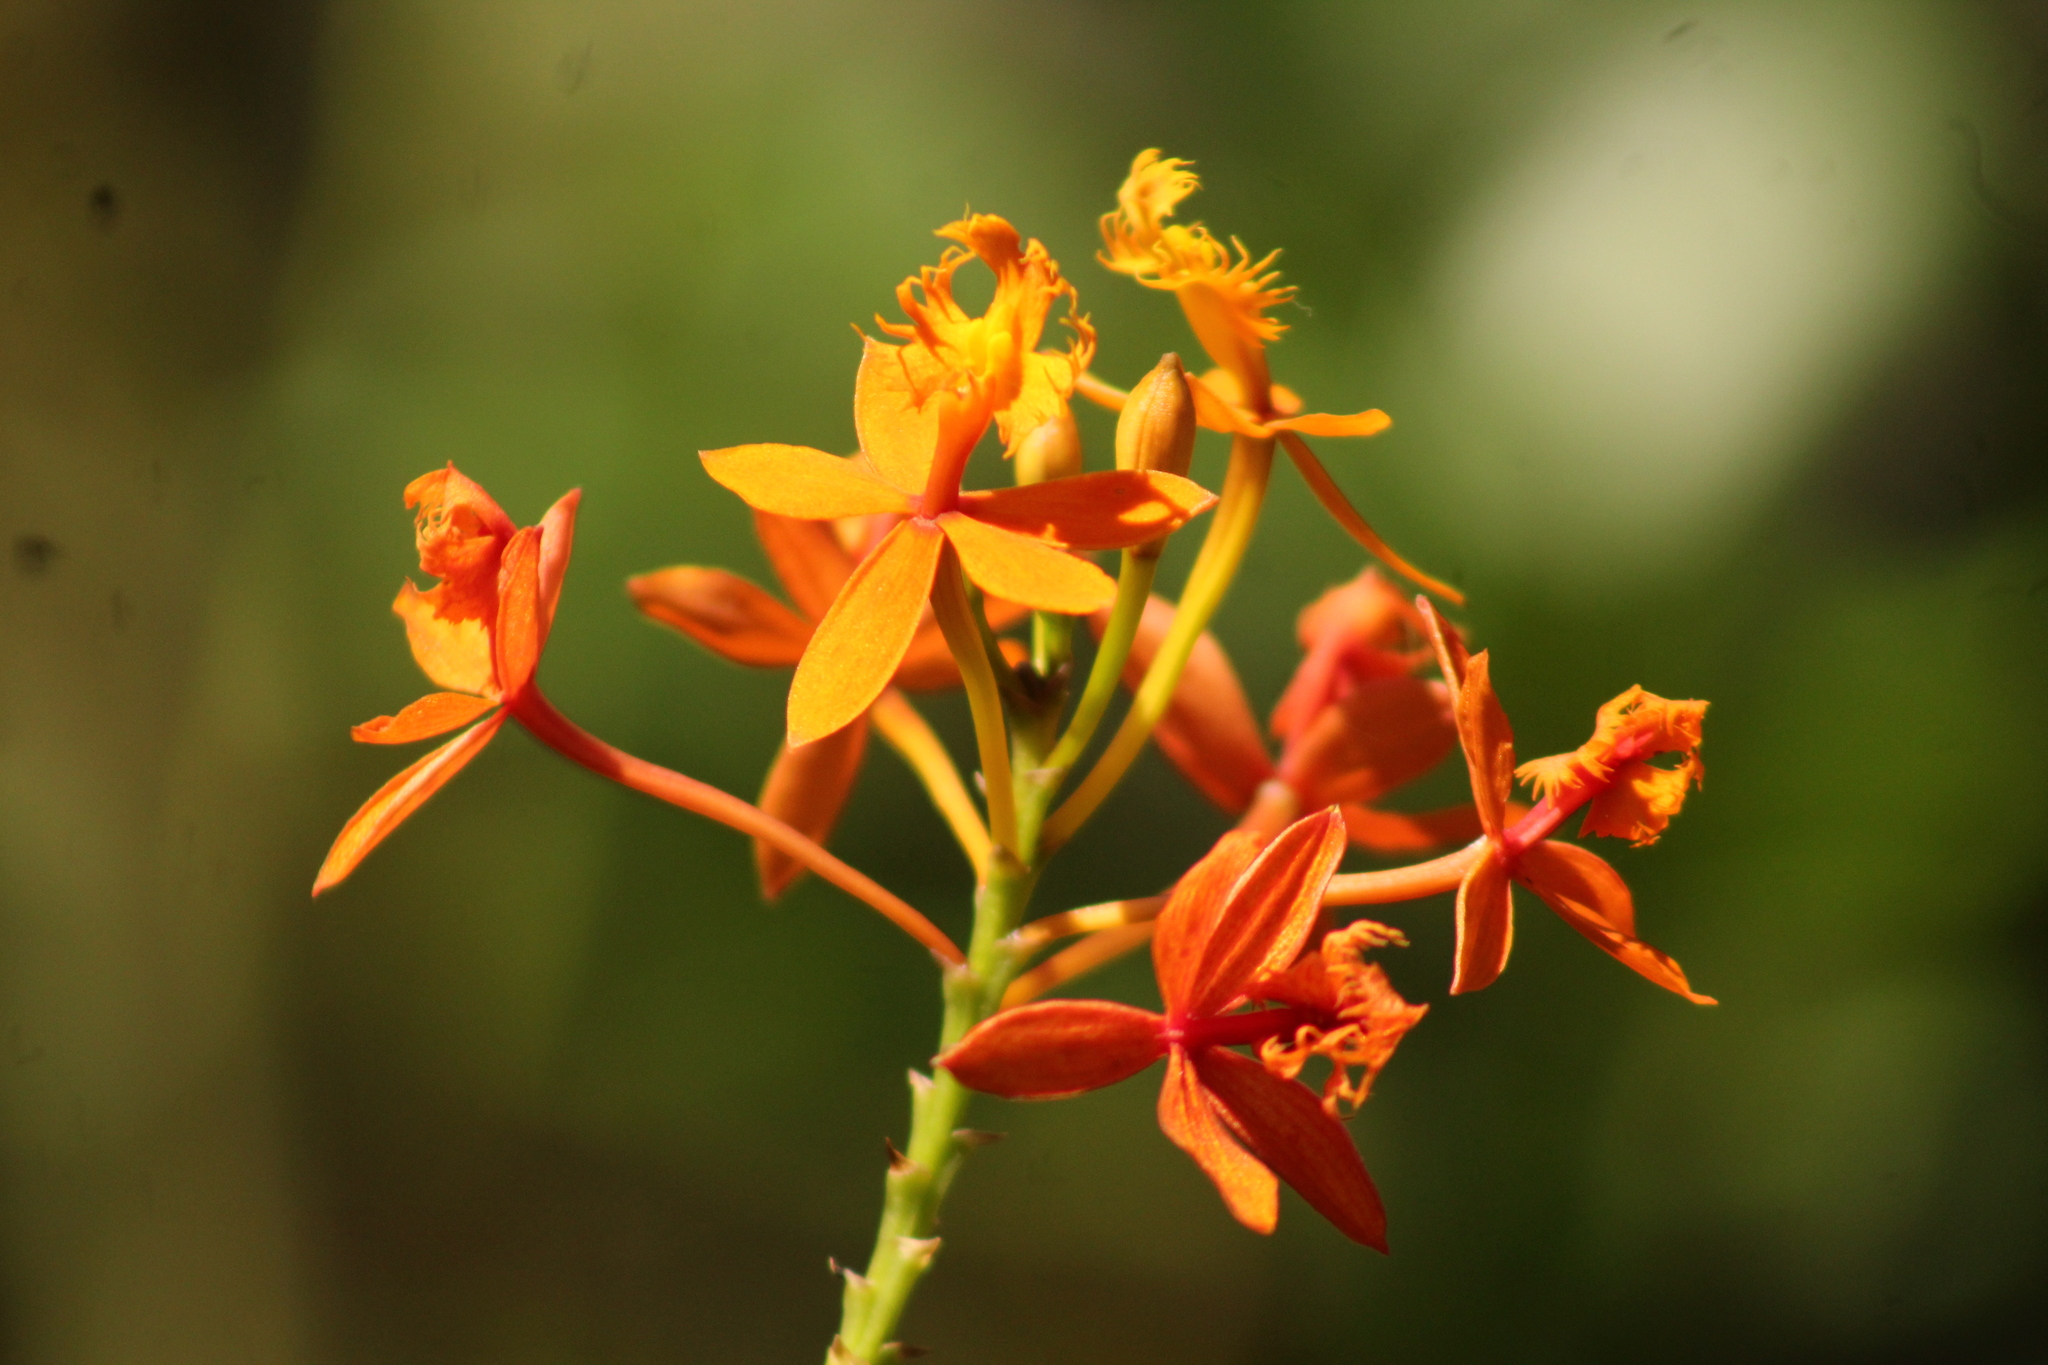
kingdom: Plantae
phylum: Tracheophyta
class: Liliopsida
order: Asparagales
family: Orchidaceae
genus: Epidendrum
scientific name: Epidendrum radicans
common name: Fire star orchid
